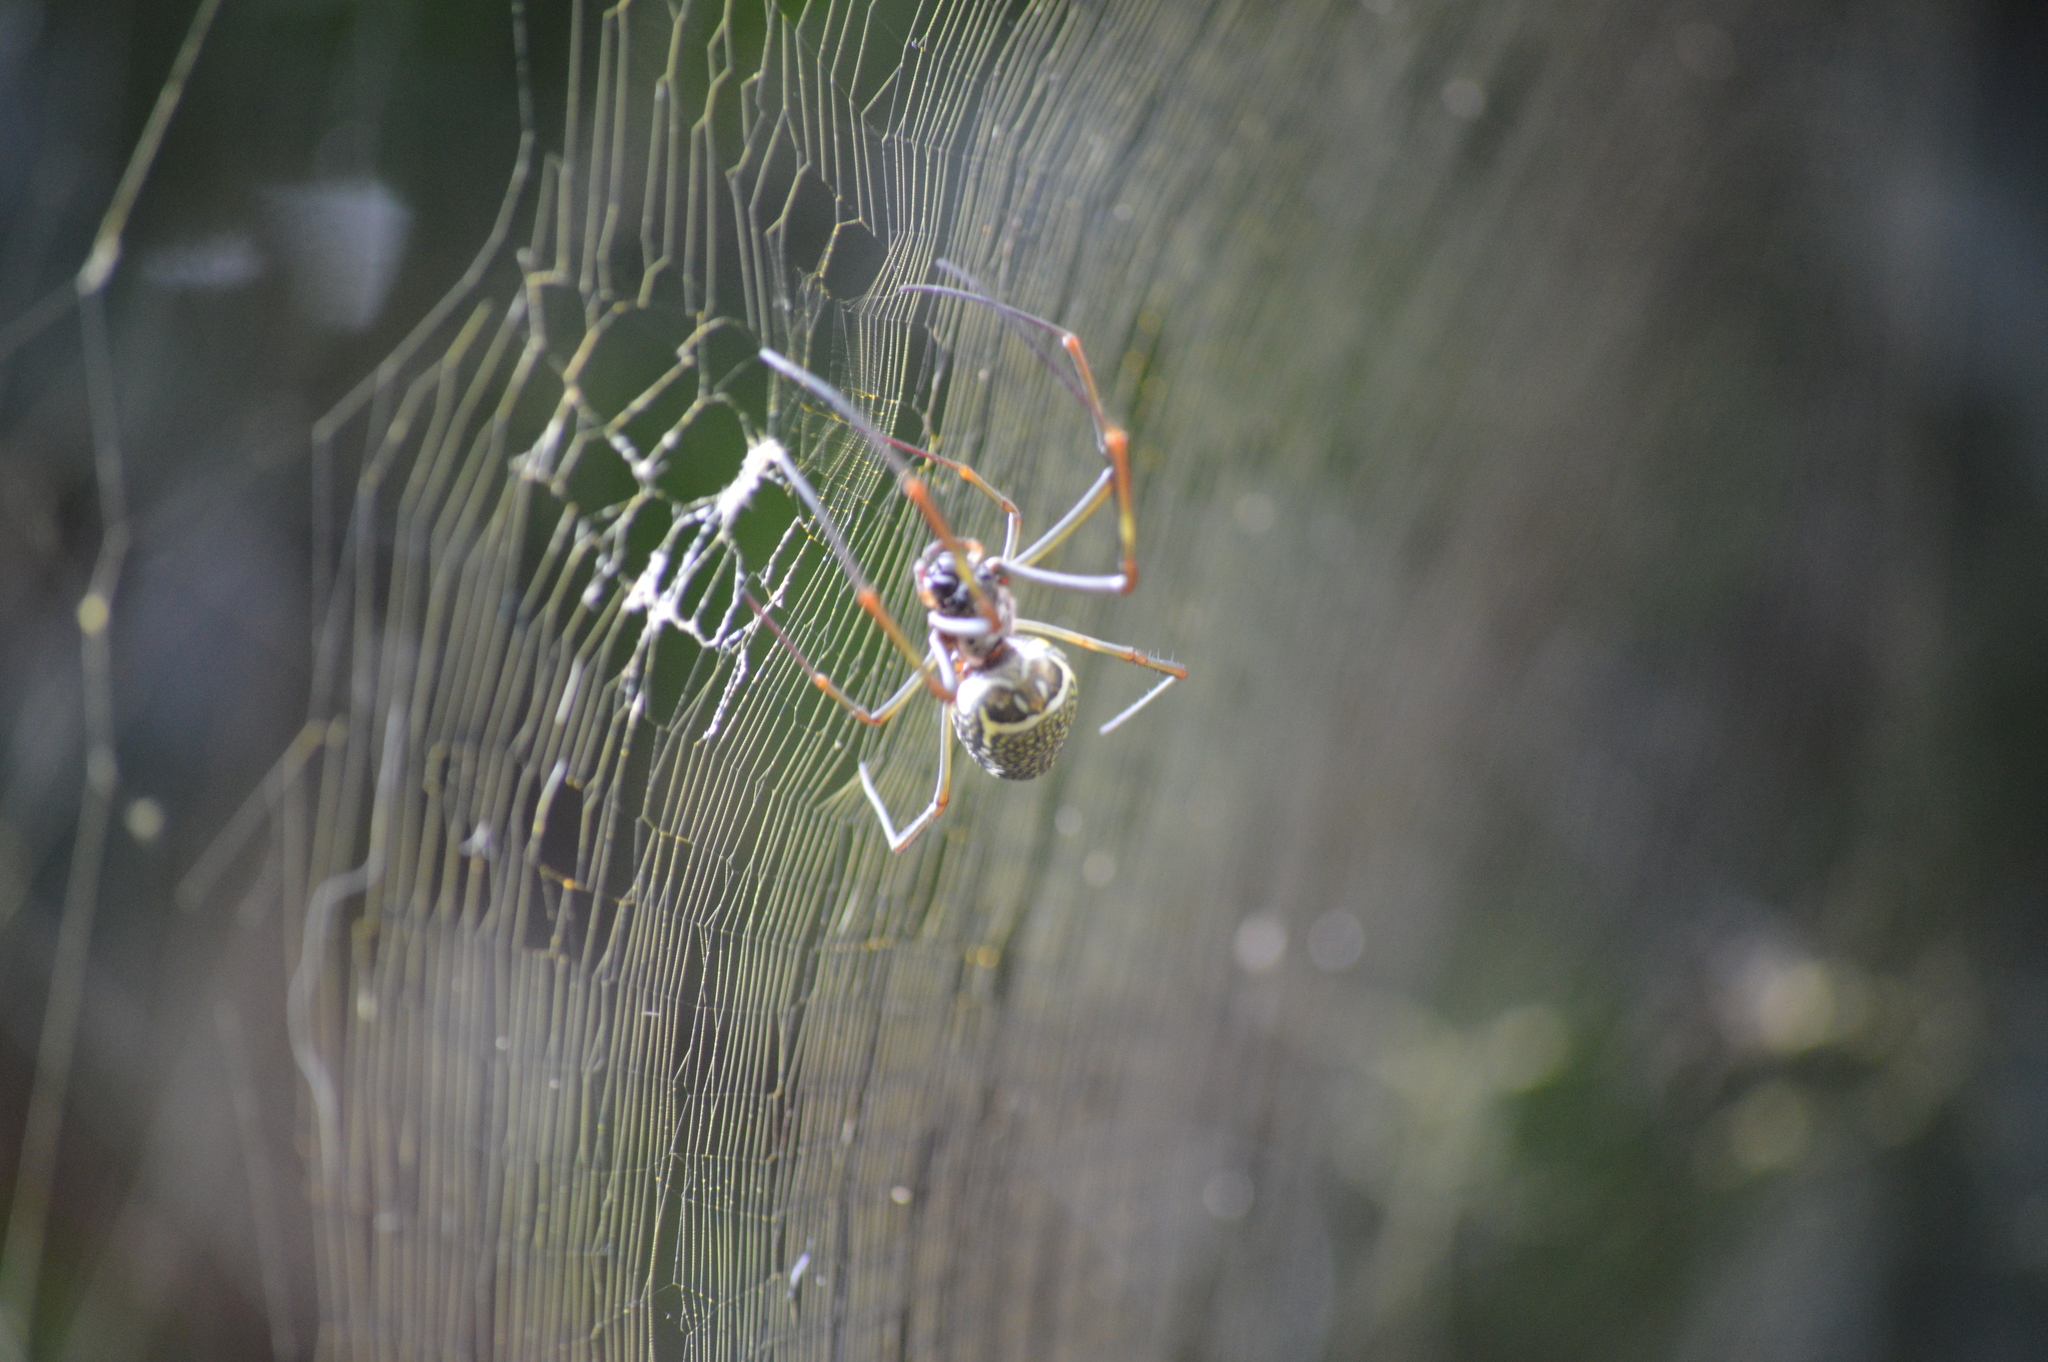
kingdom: Animalia
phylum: Arthropoda
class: Arachnida
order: Araneae
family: Araneidae
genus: Trichonephila
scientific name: Trichonephila clavipes
